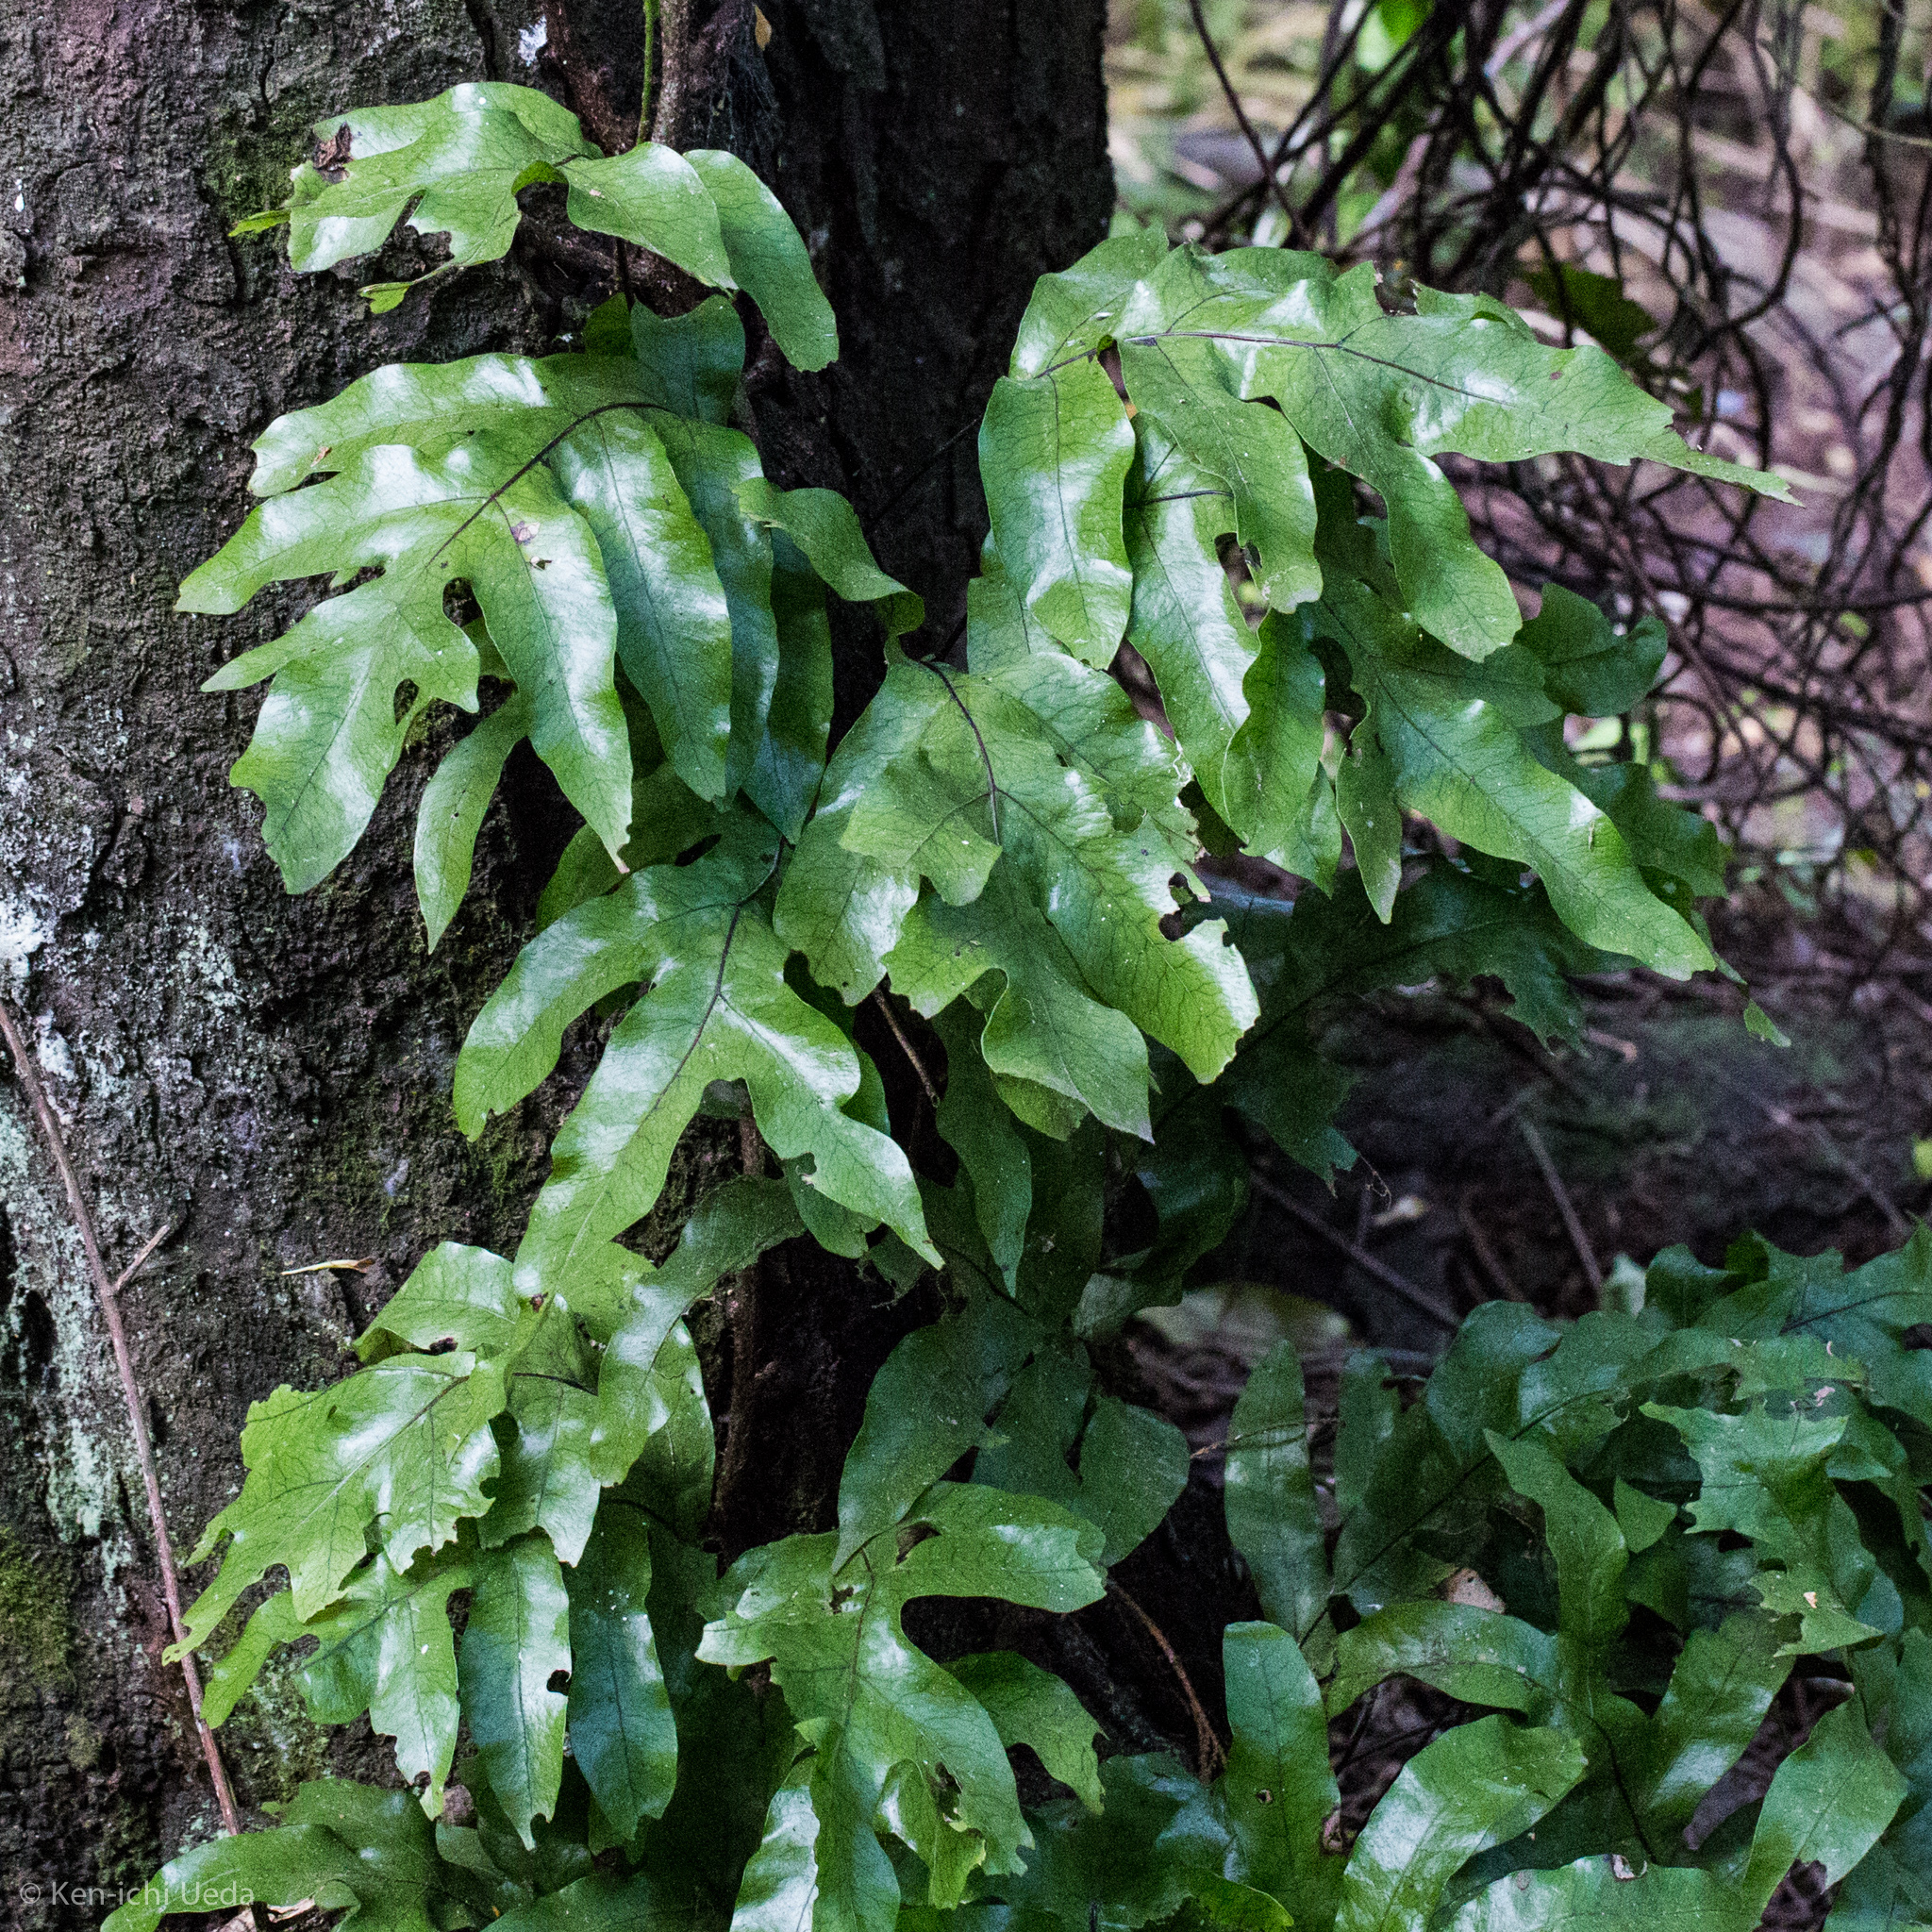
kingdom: Plantae
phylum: Tracheophyta
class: Polypodiopsida
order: Polypodiales
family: Polypodiaceae
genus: Lecanopteris
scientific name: Lecanopteris pustulata
